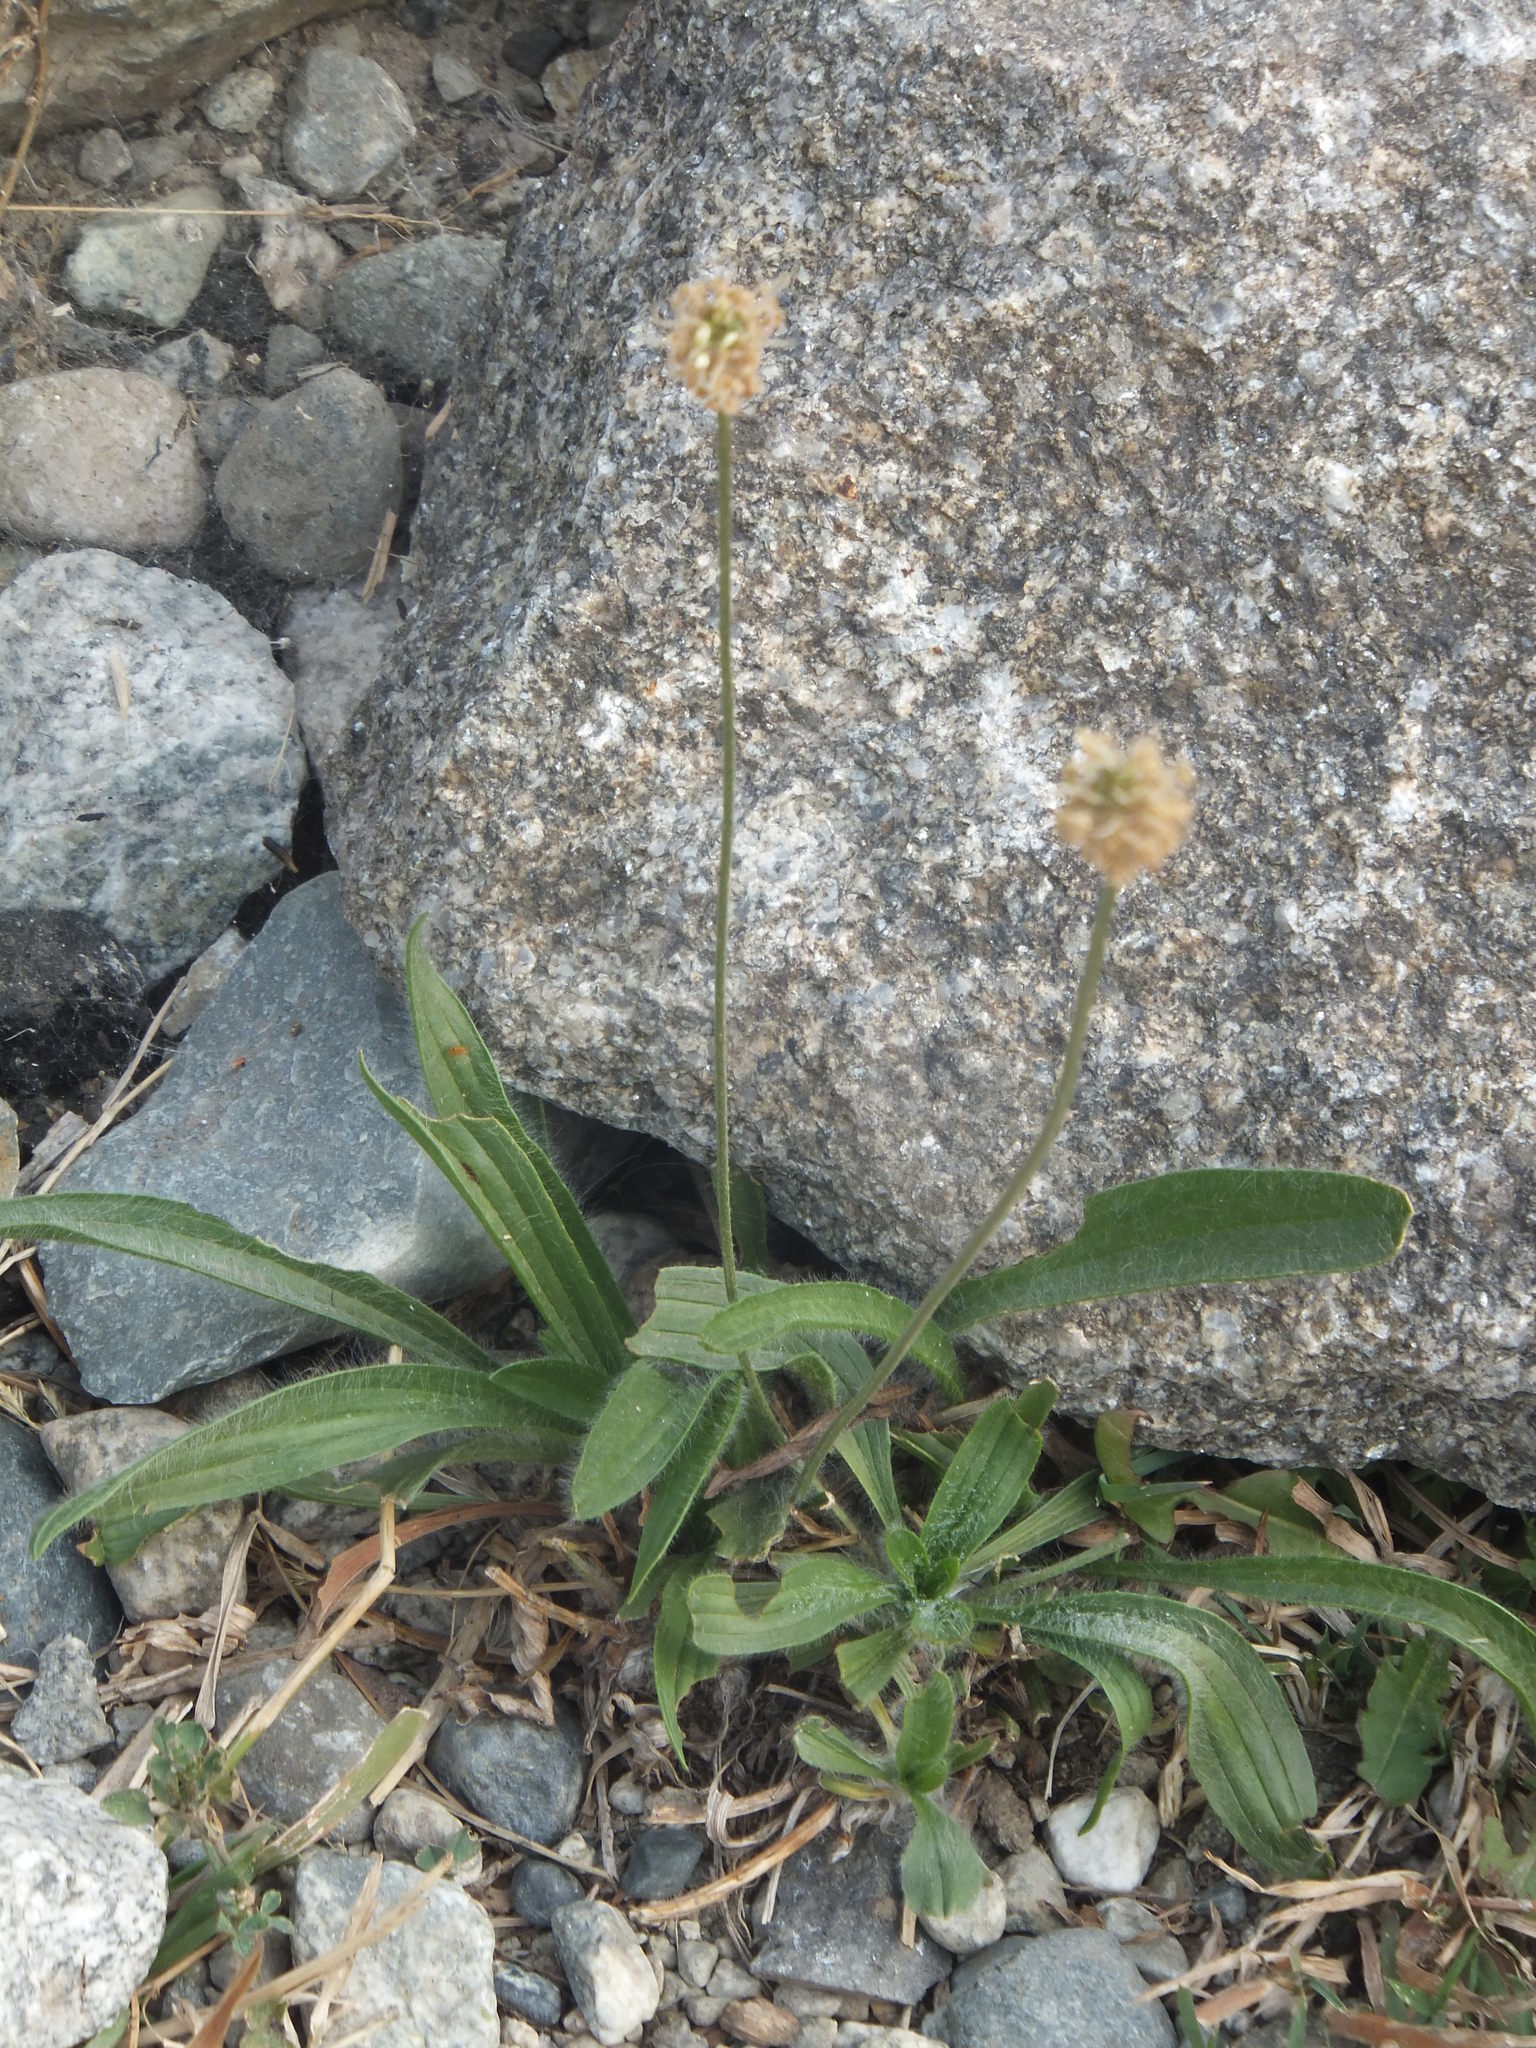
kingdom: Plantae
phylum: Tracheophyta
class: Magnoliopsida
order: Lamiales
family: Plantaginaceae
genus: Plantago
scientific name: Plantago lanceolata
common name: Ribwort plantain
